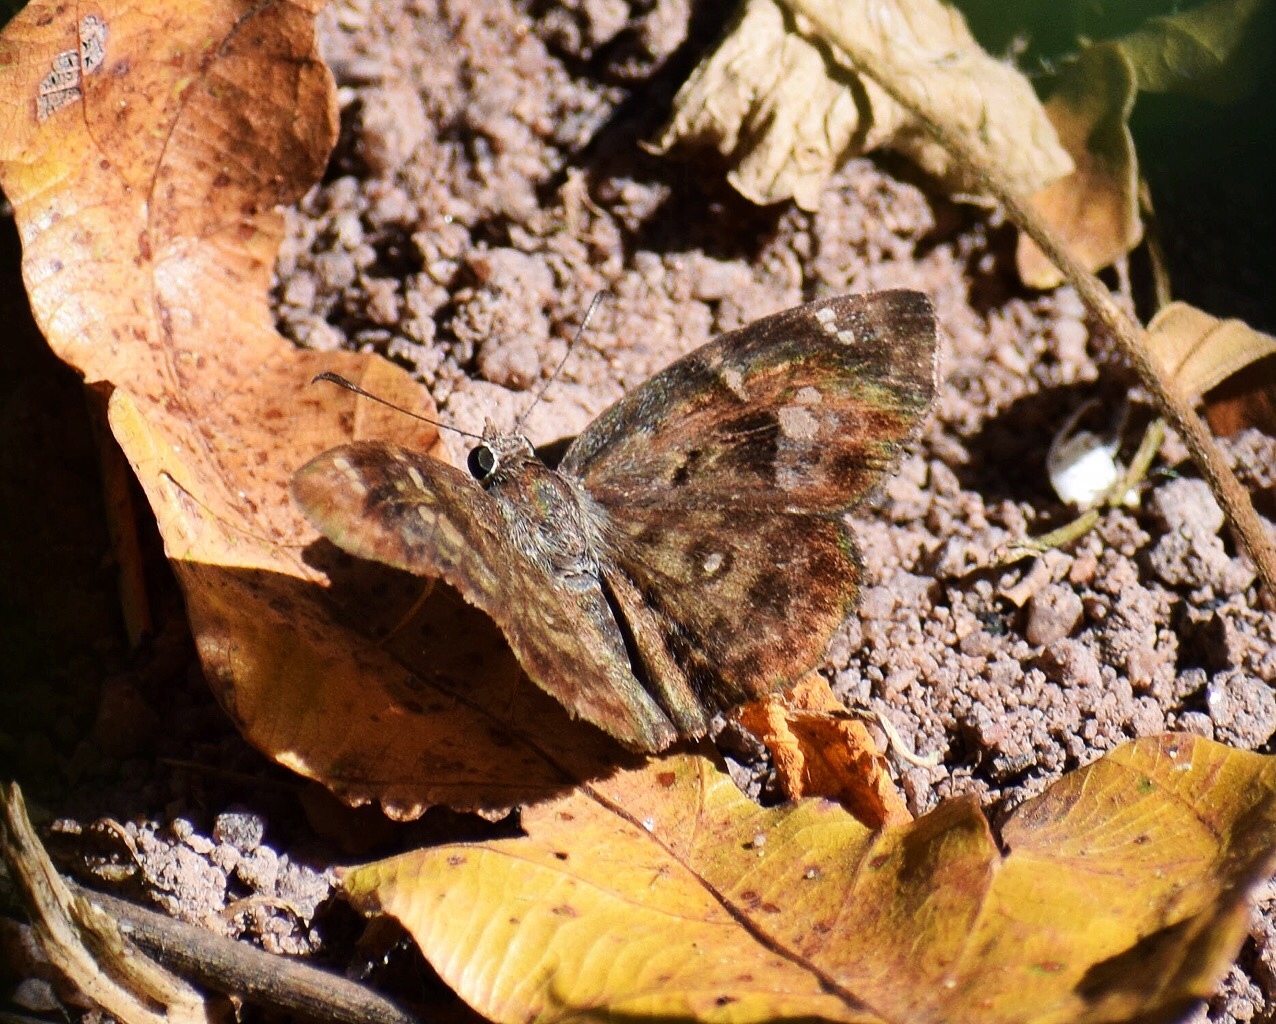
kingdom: Animalia
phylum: Arthropoda
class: Insecta
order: Lepidoptera
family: Hesperiidae
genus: Sarangesa
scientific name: Sarangesa motozi
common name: Forest elfin
